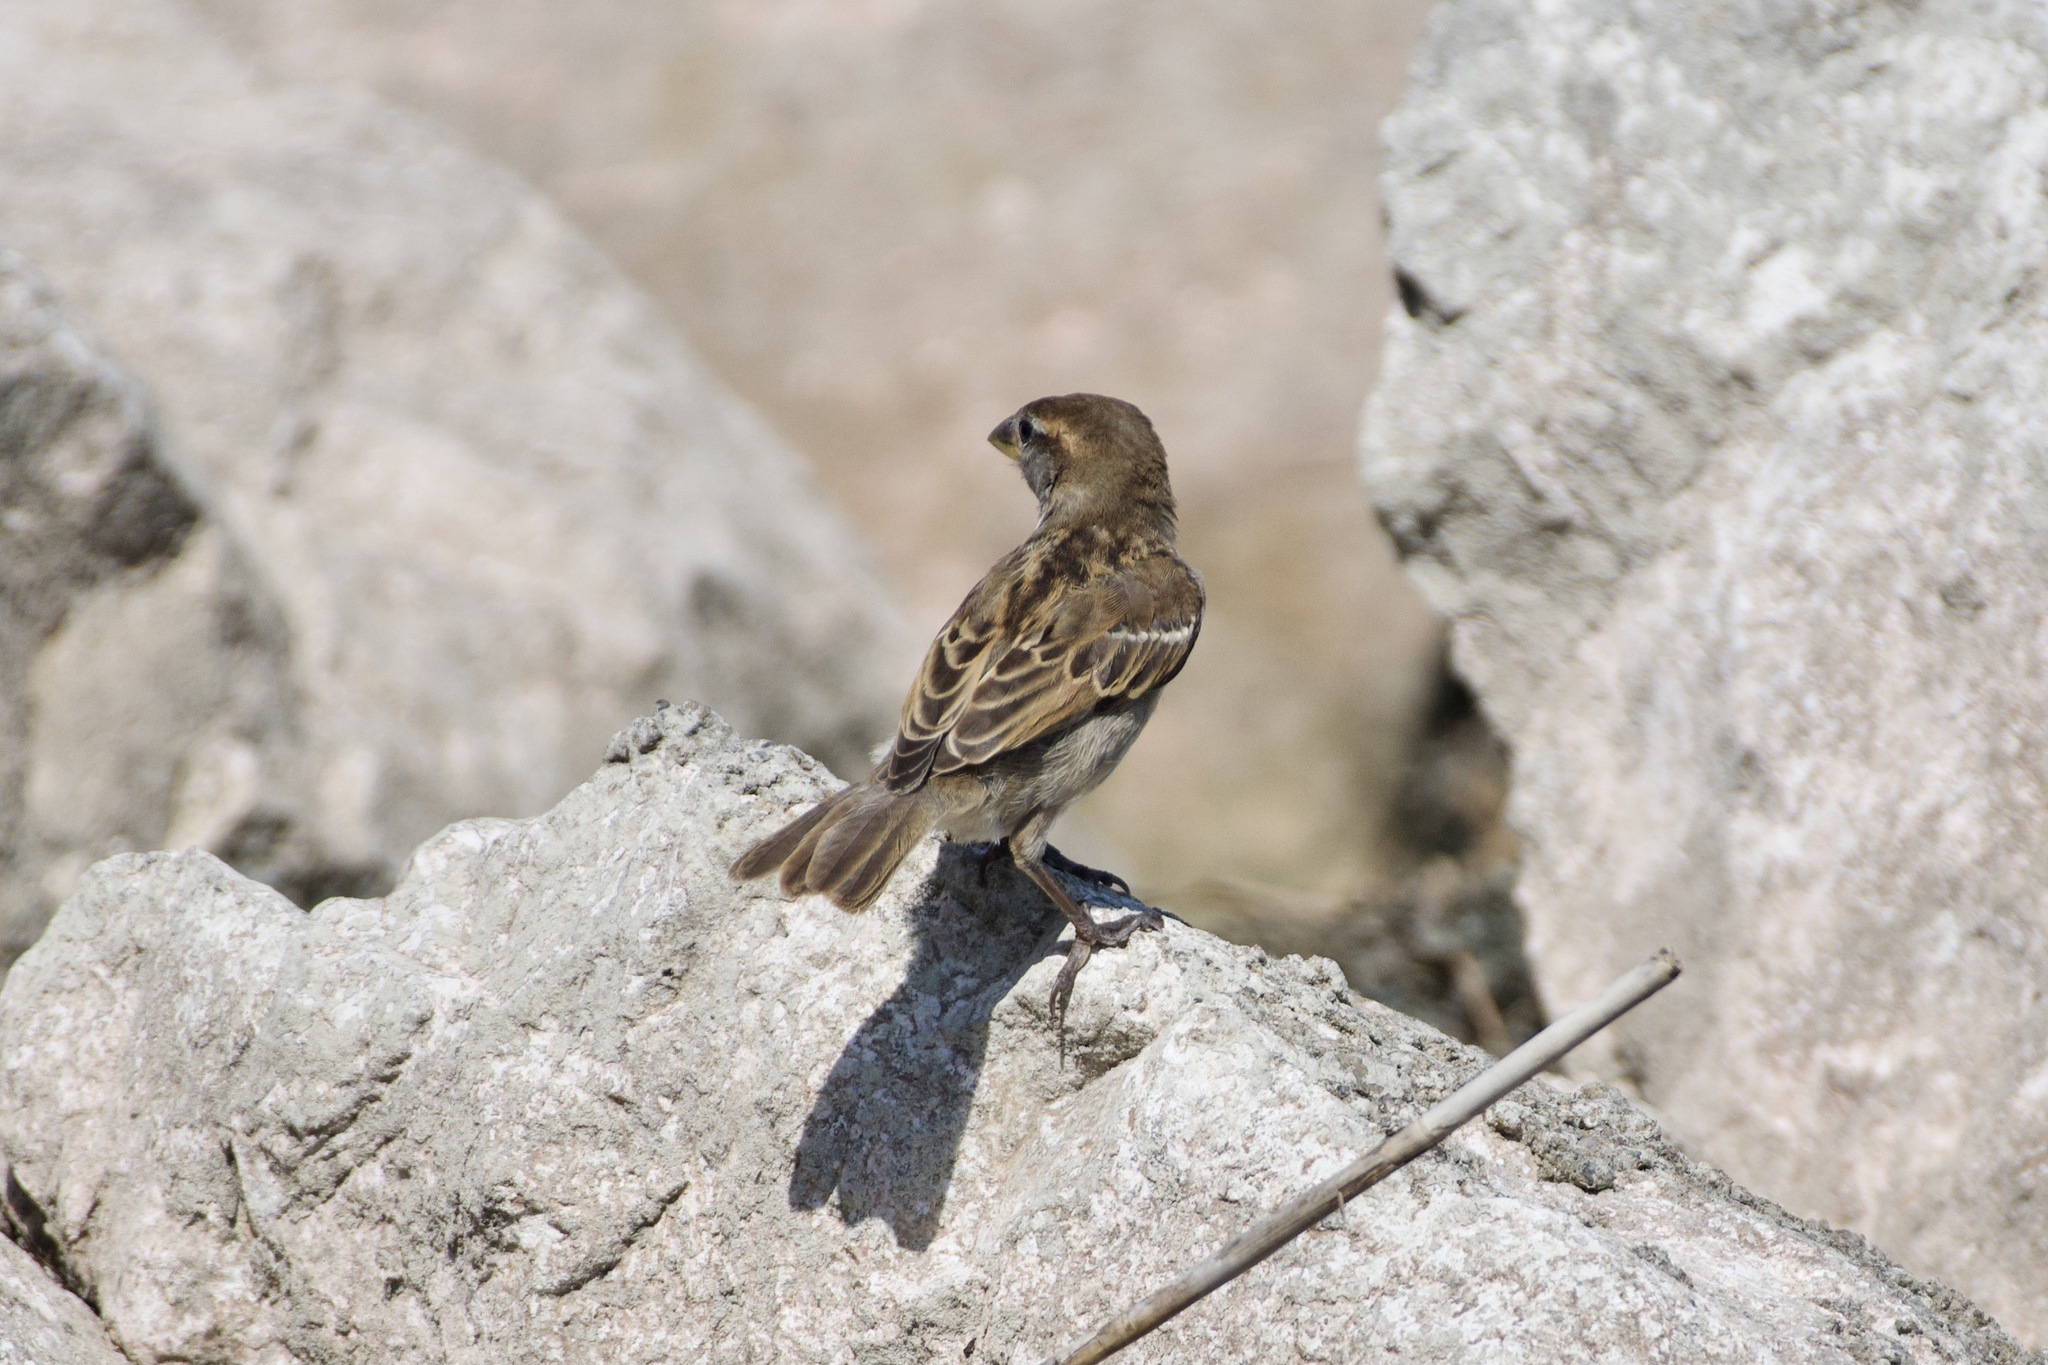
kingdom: Animalia
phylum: Chordata
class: Aves
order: Passeriformes
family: Passeridae
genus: Passer
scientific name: Passer italiae
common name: Italian sparrow
